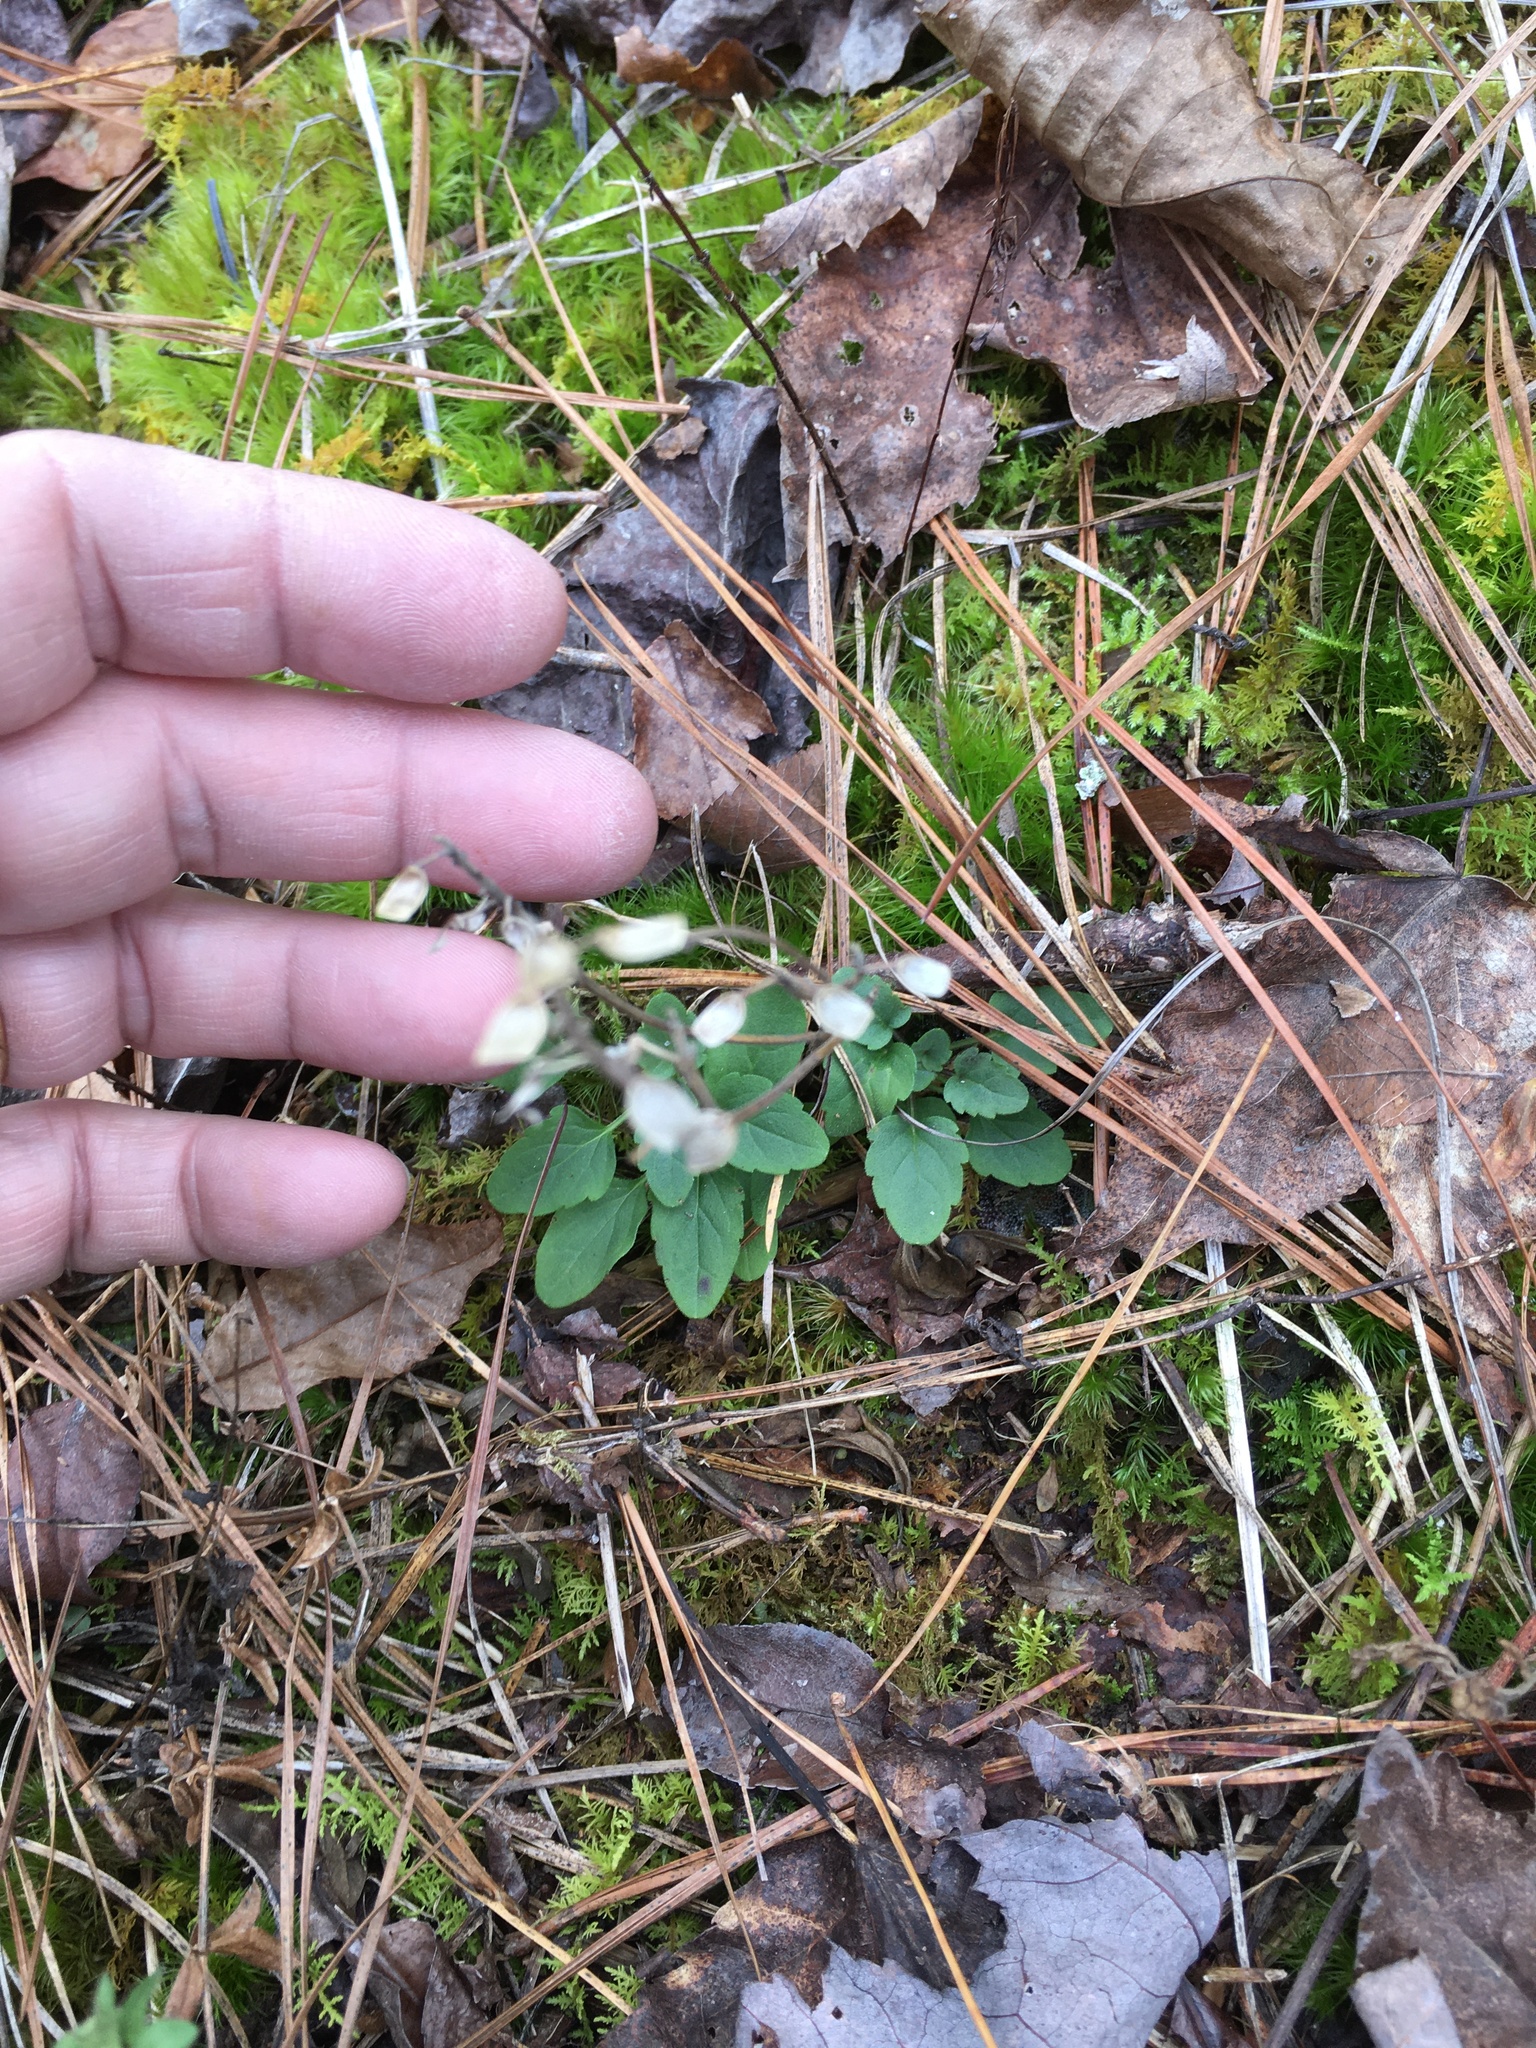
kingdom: Plantae
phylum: Tracheophyta
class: Magnoliopsida
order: Lamiales
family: Lamiaceae
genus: Scutellaria
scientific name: Scutellaria integrifolia
